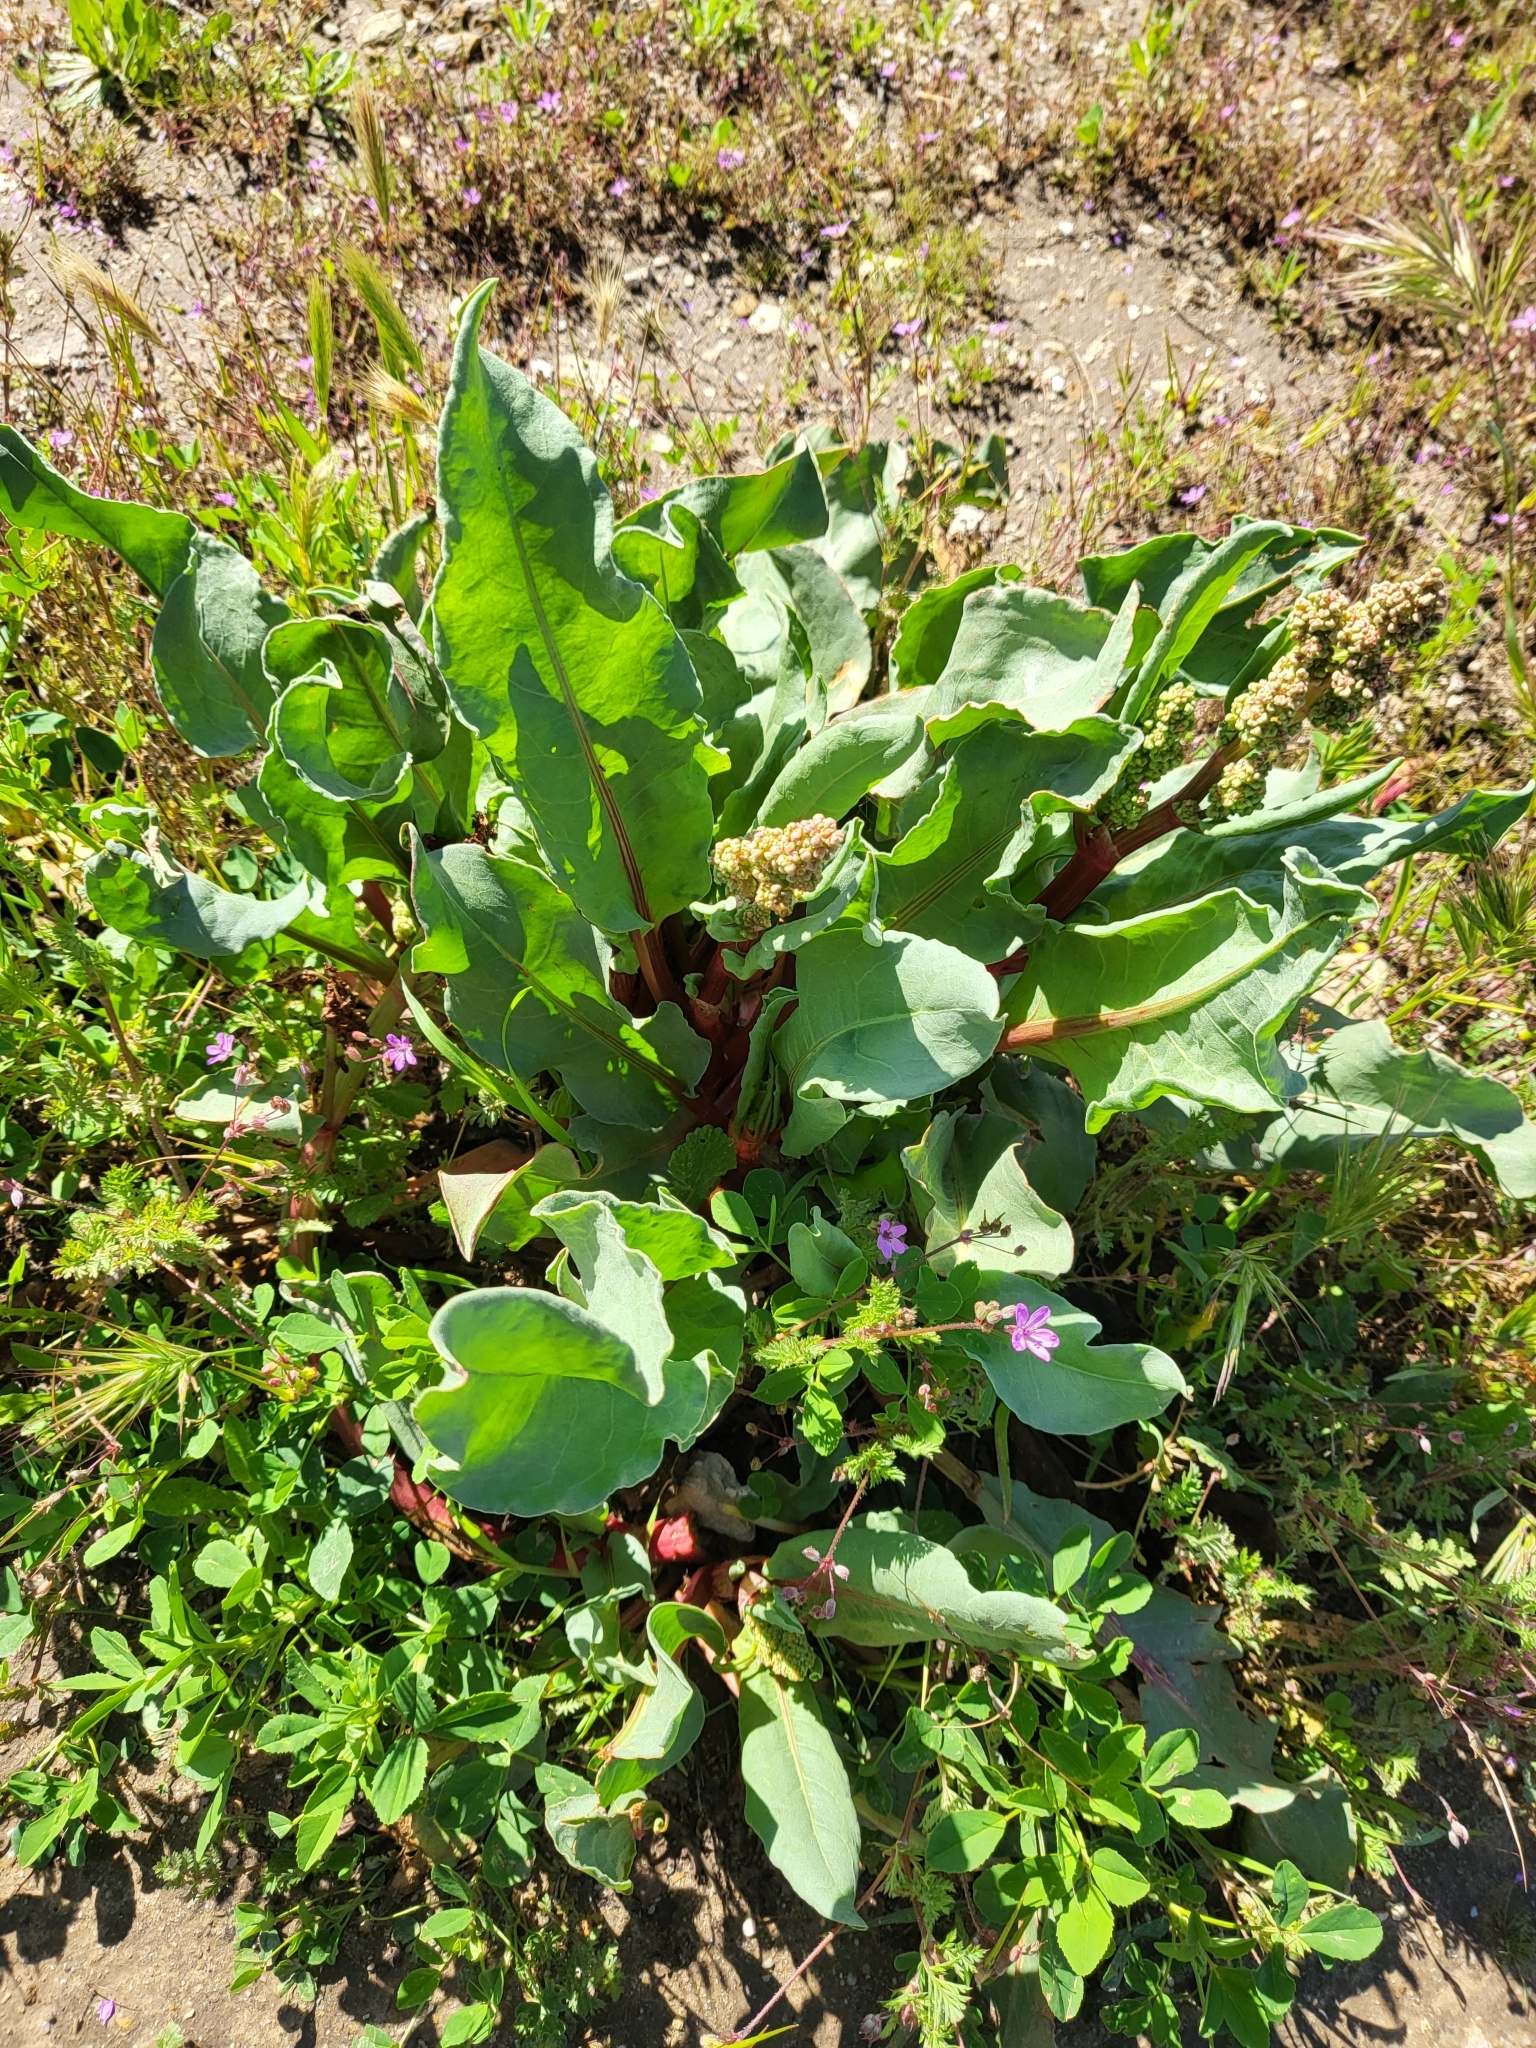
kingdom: Plantae
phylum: Tracheophyta
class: Magnoliopsida
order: Caryophyllales
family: Polygonaceae
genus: Rumex
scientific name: Rumex hymenosepalus
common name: Ganagra
